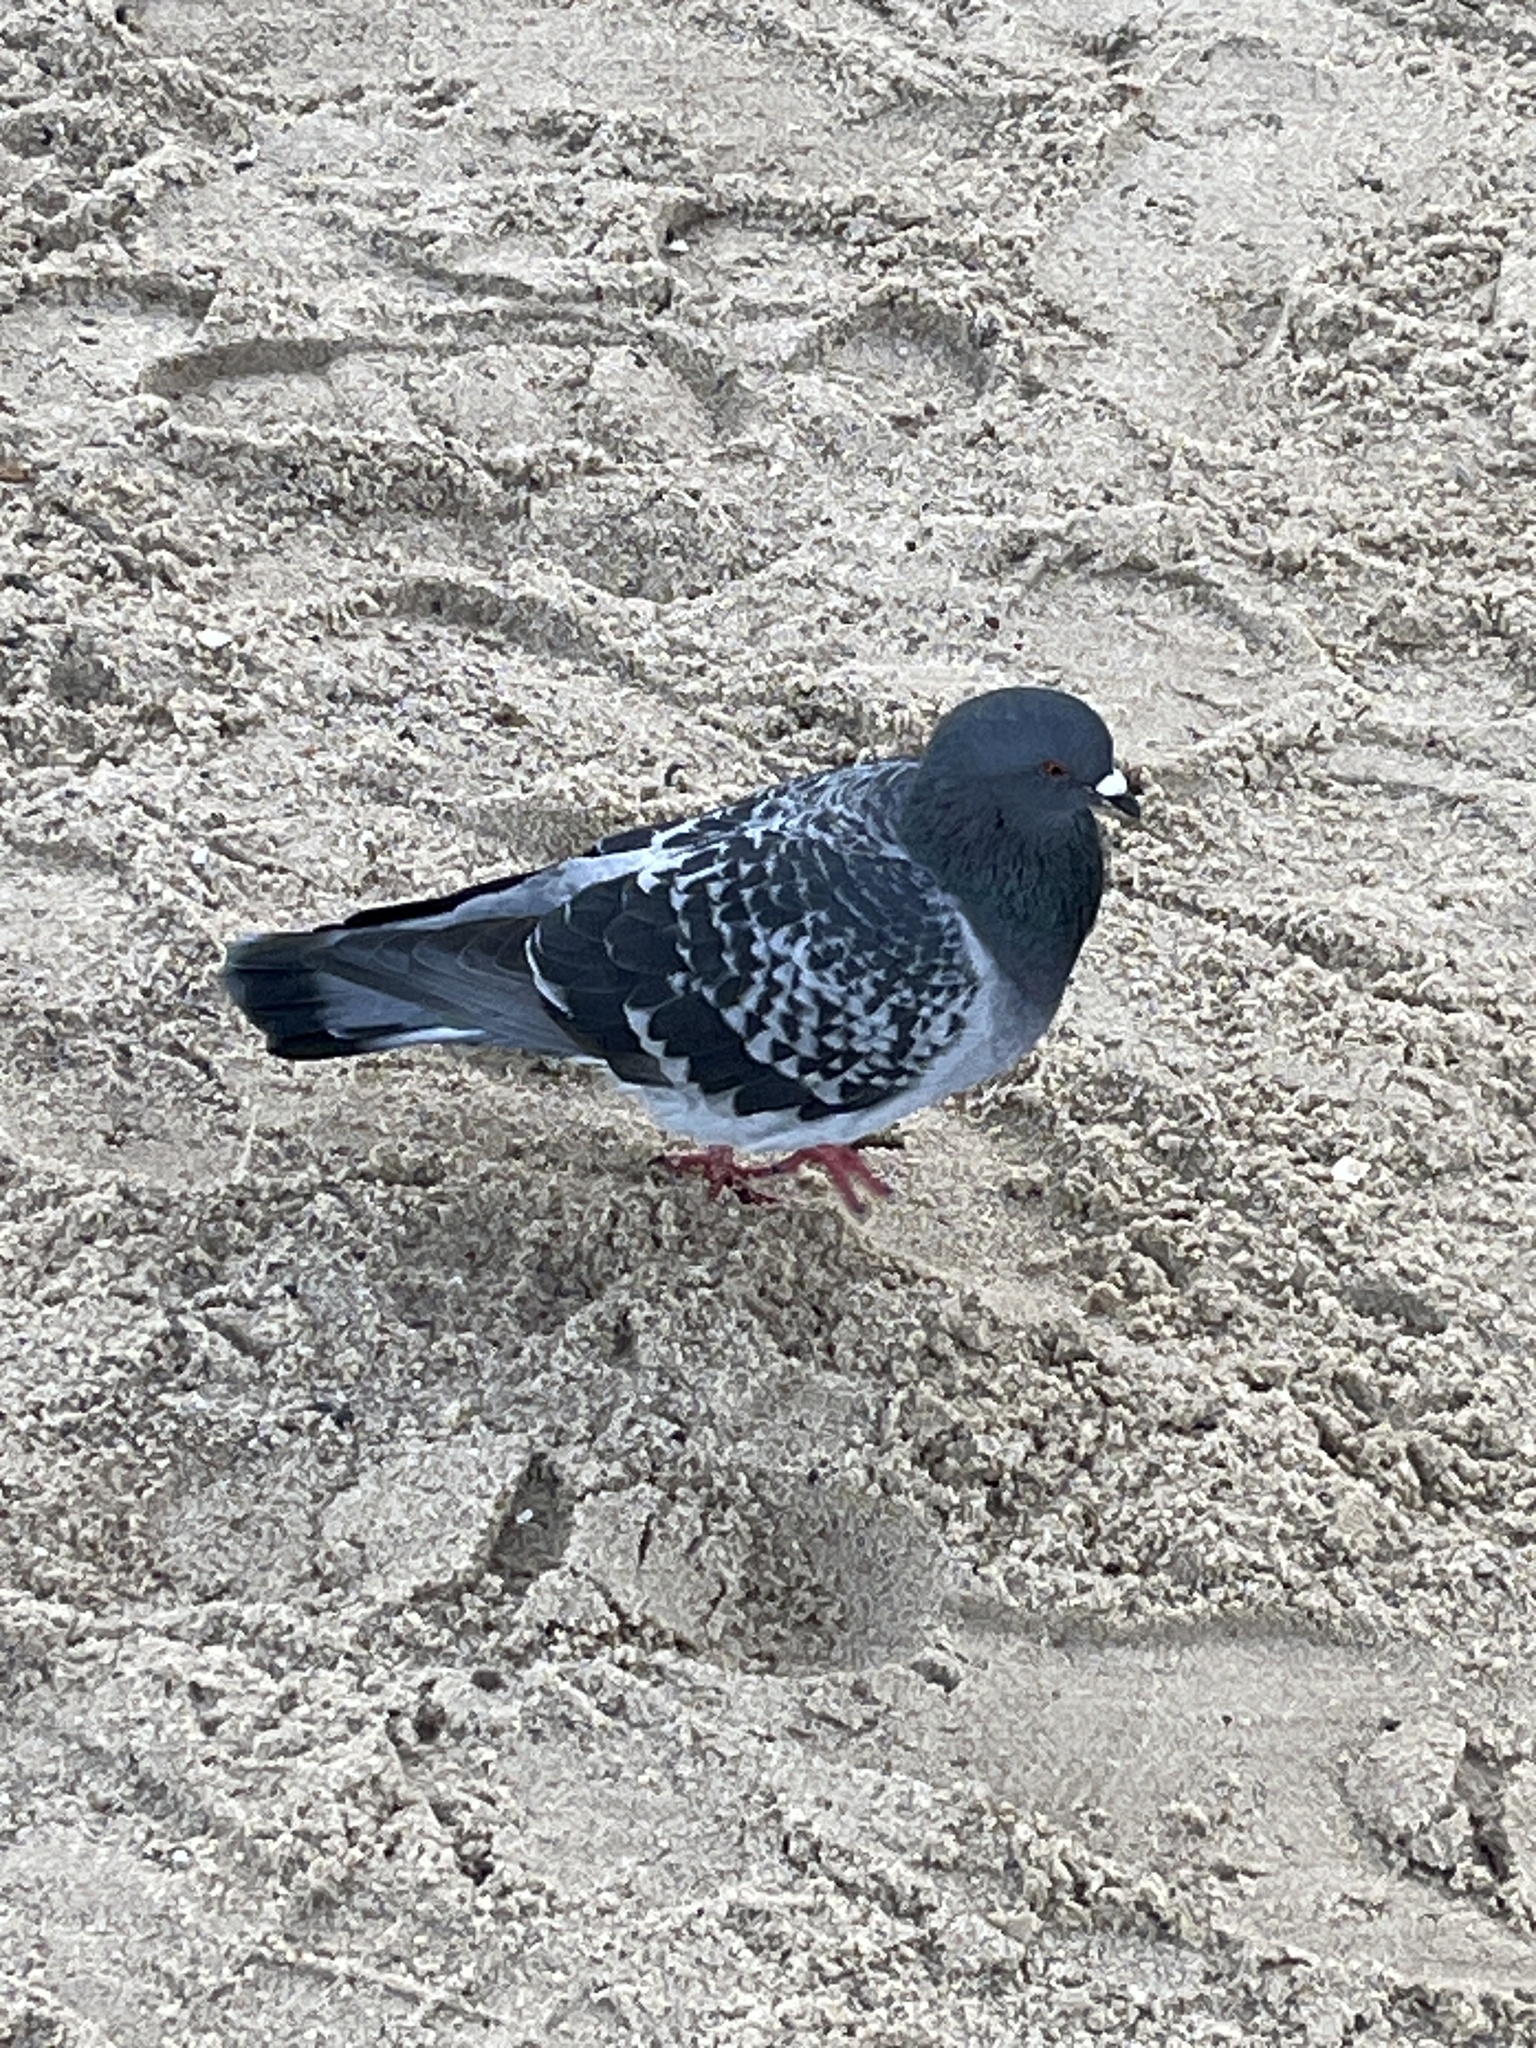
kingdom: Animalia
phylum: Chordata
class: Aves
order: Columbiformes
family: Columbidae
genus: Columba
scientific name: Columba livia
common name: Rock pigeon
